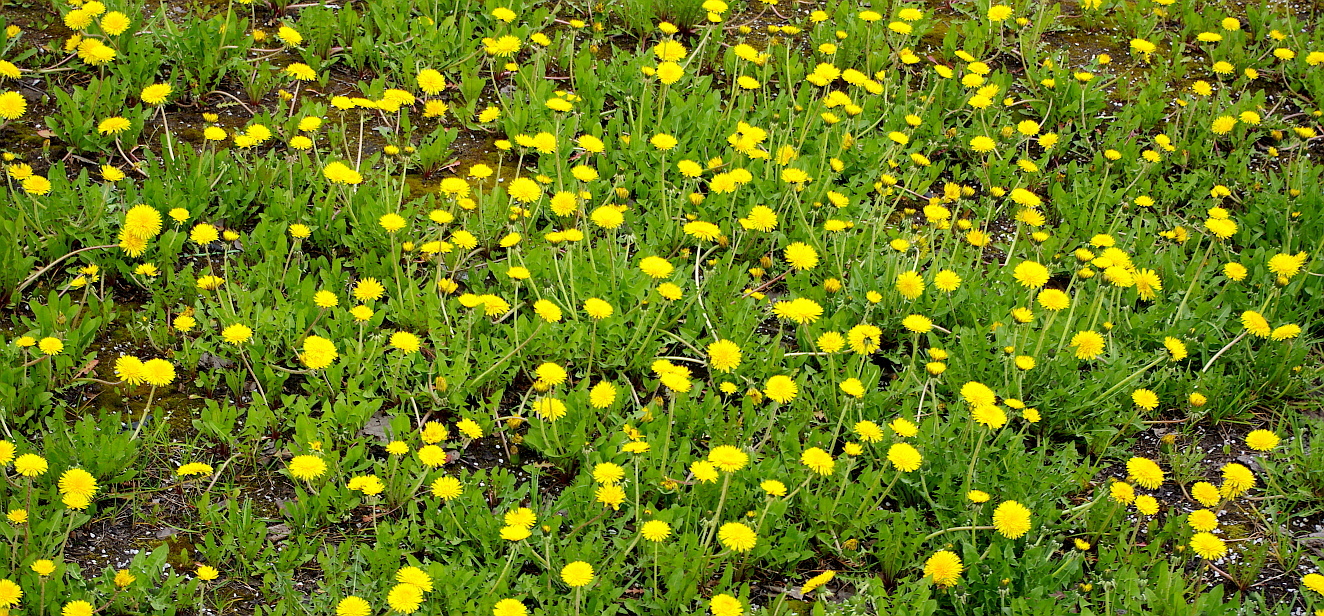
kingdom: Plantae
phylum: Tracheophyta
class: Magnoliopsida
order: Asterales
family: Asteraceae
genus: Taraxacum
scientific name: Taraxacum officinale
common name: Common dandelion
